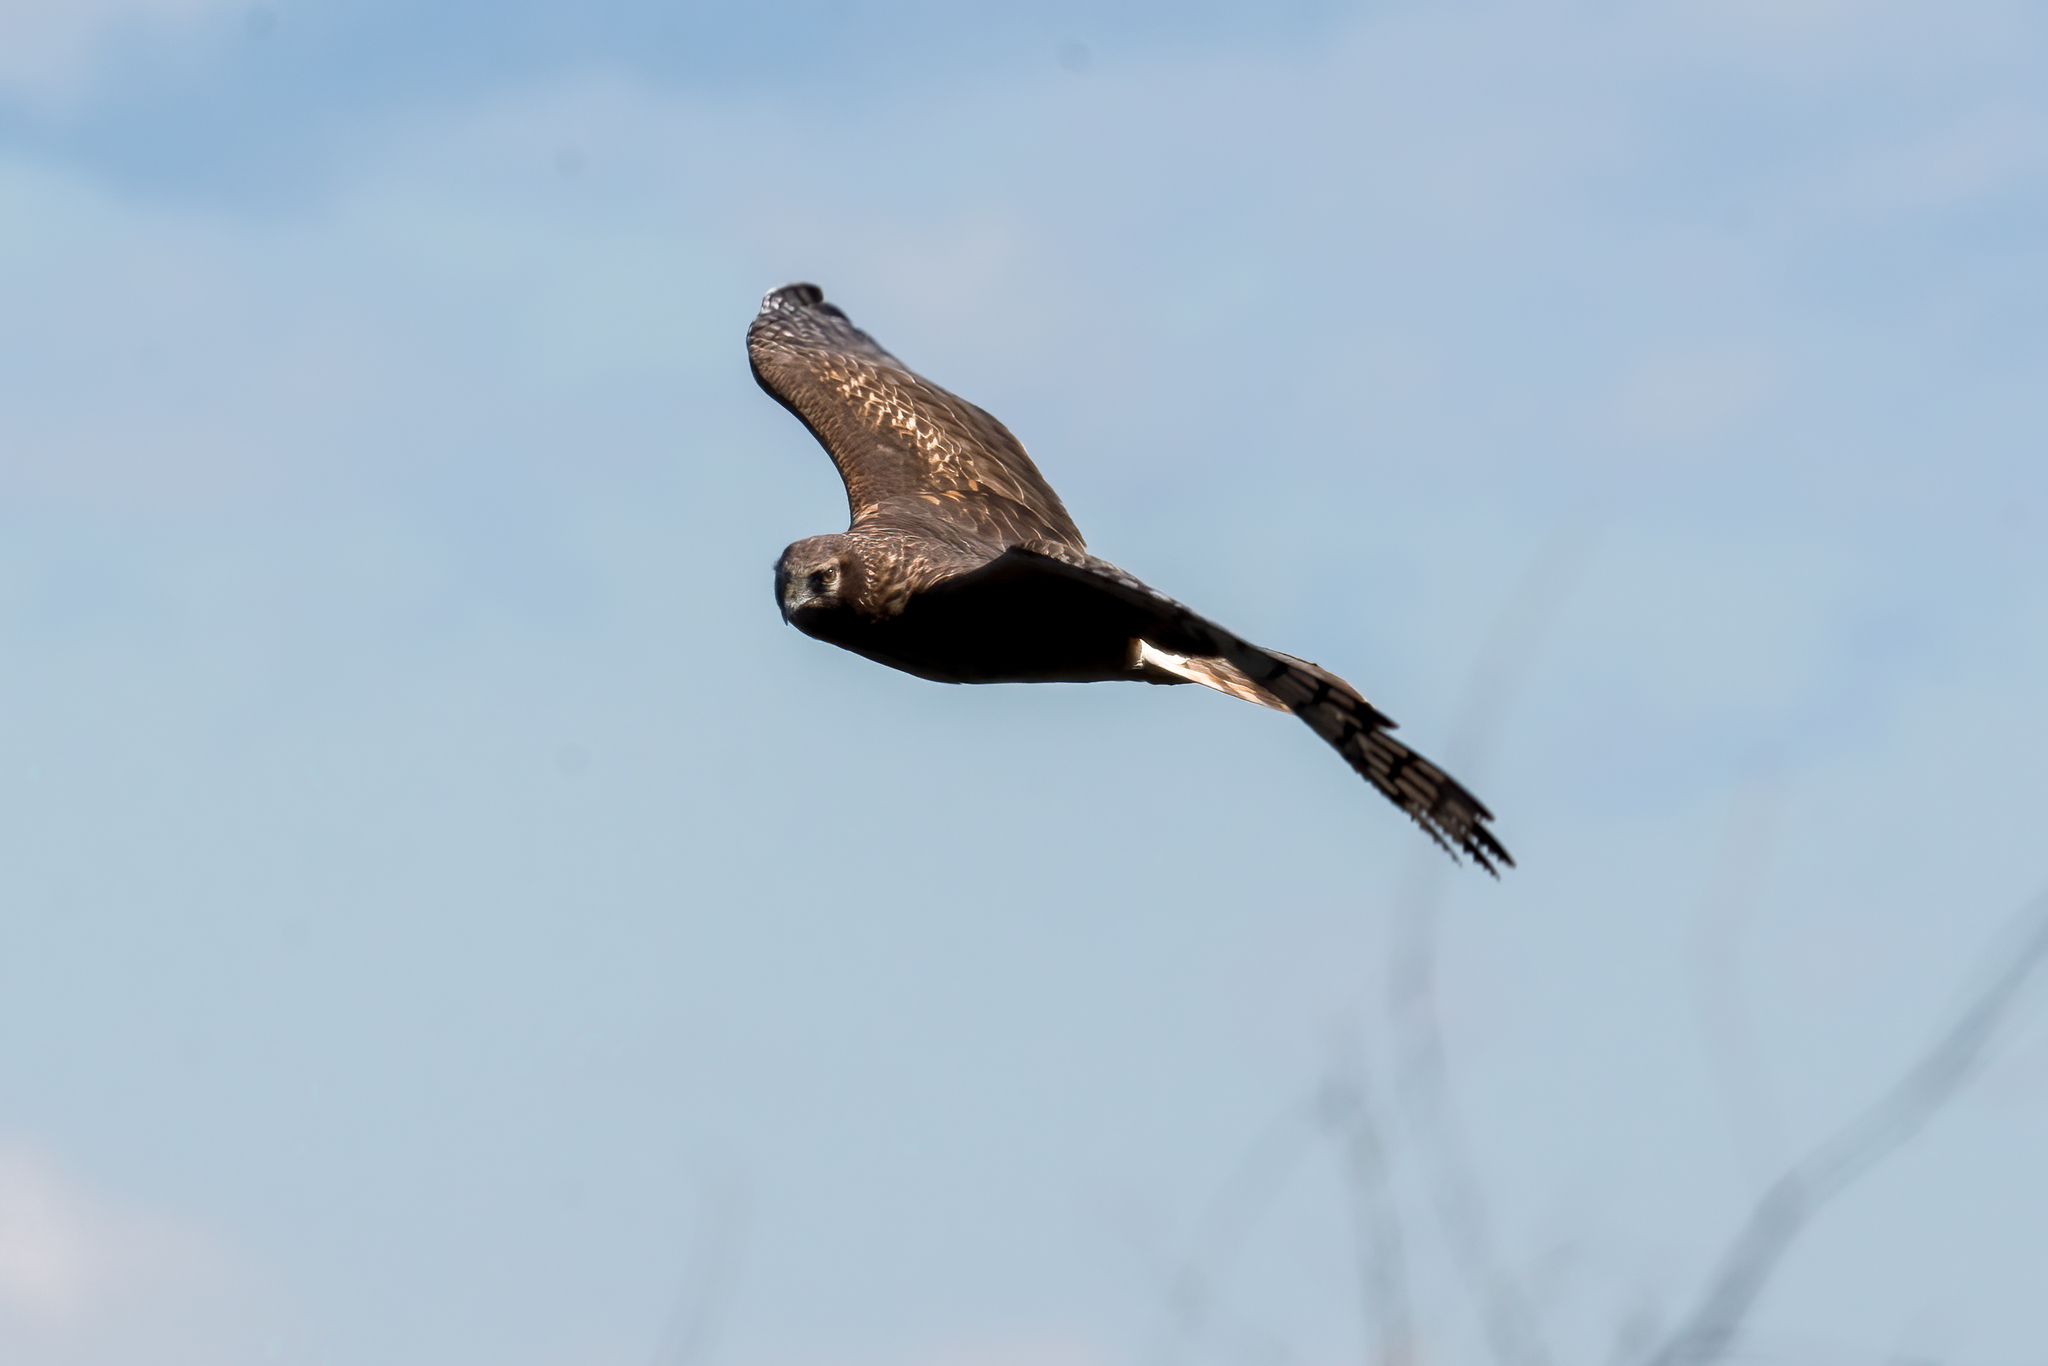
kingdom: Animalia
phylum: Chordata
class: Aves
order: Accipitriformes
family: Accipitridae
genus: Circus
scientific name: Circus cyaneus
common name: Hen harrier
